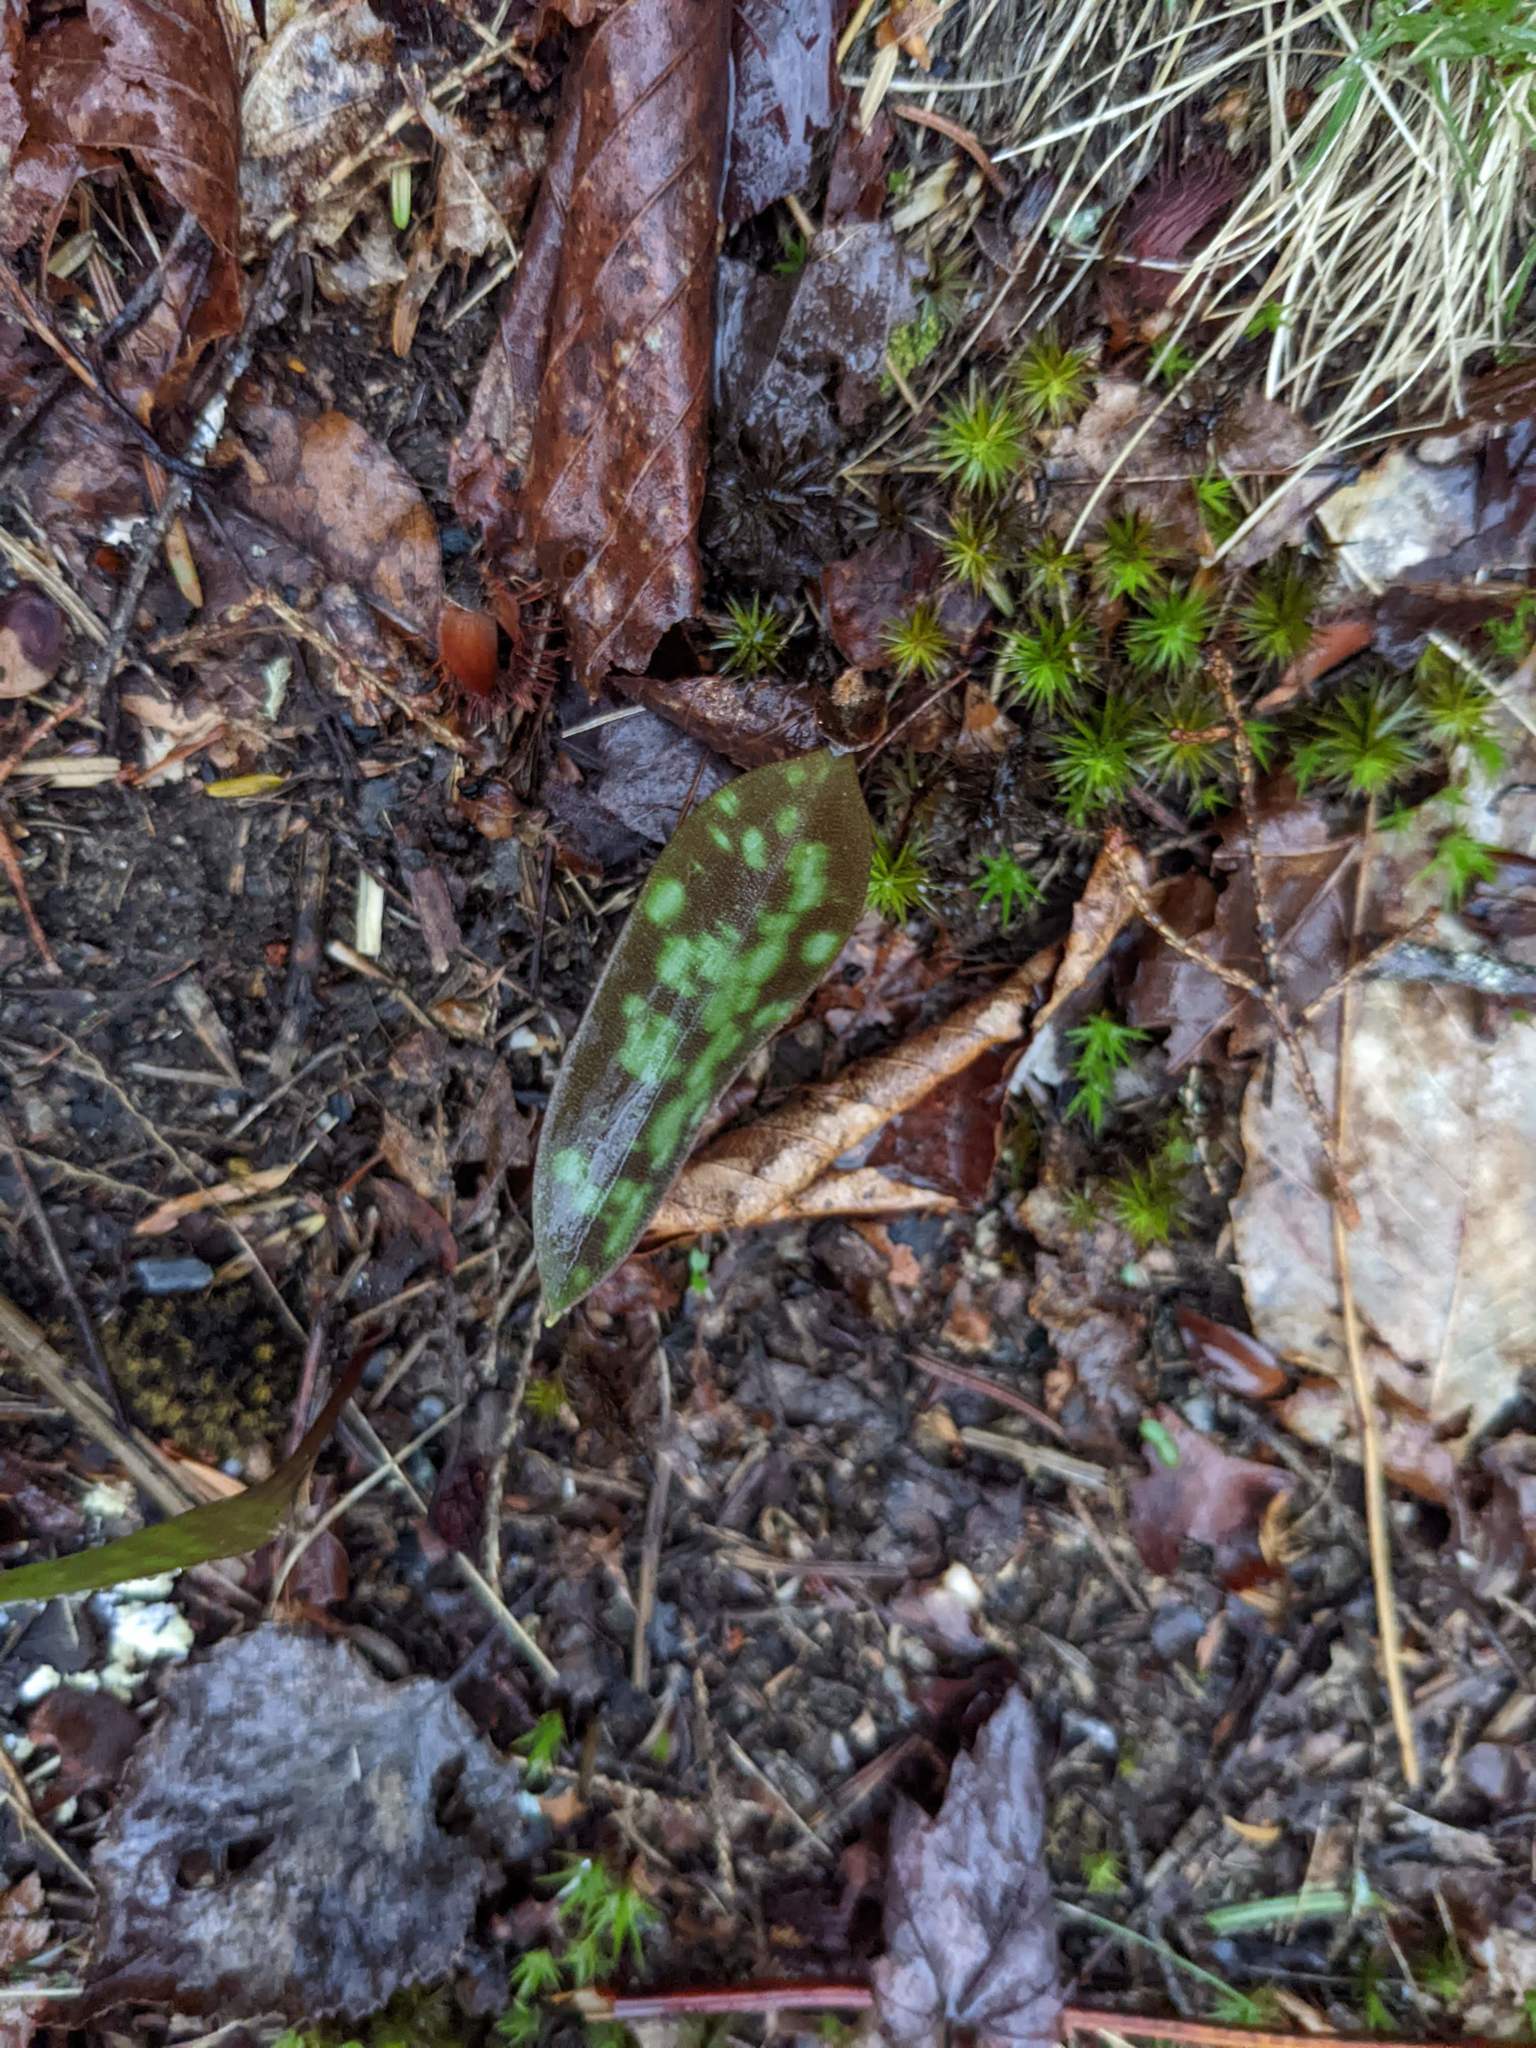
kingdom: Plantae
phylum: Tracheophyta
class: Liliopsida
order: Liliales
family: Liliaceae
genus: Erythronium
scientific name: Erythronium americanum
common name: Yellow adder's-tongue
